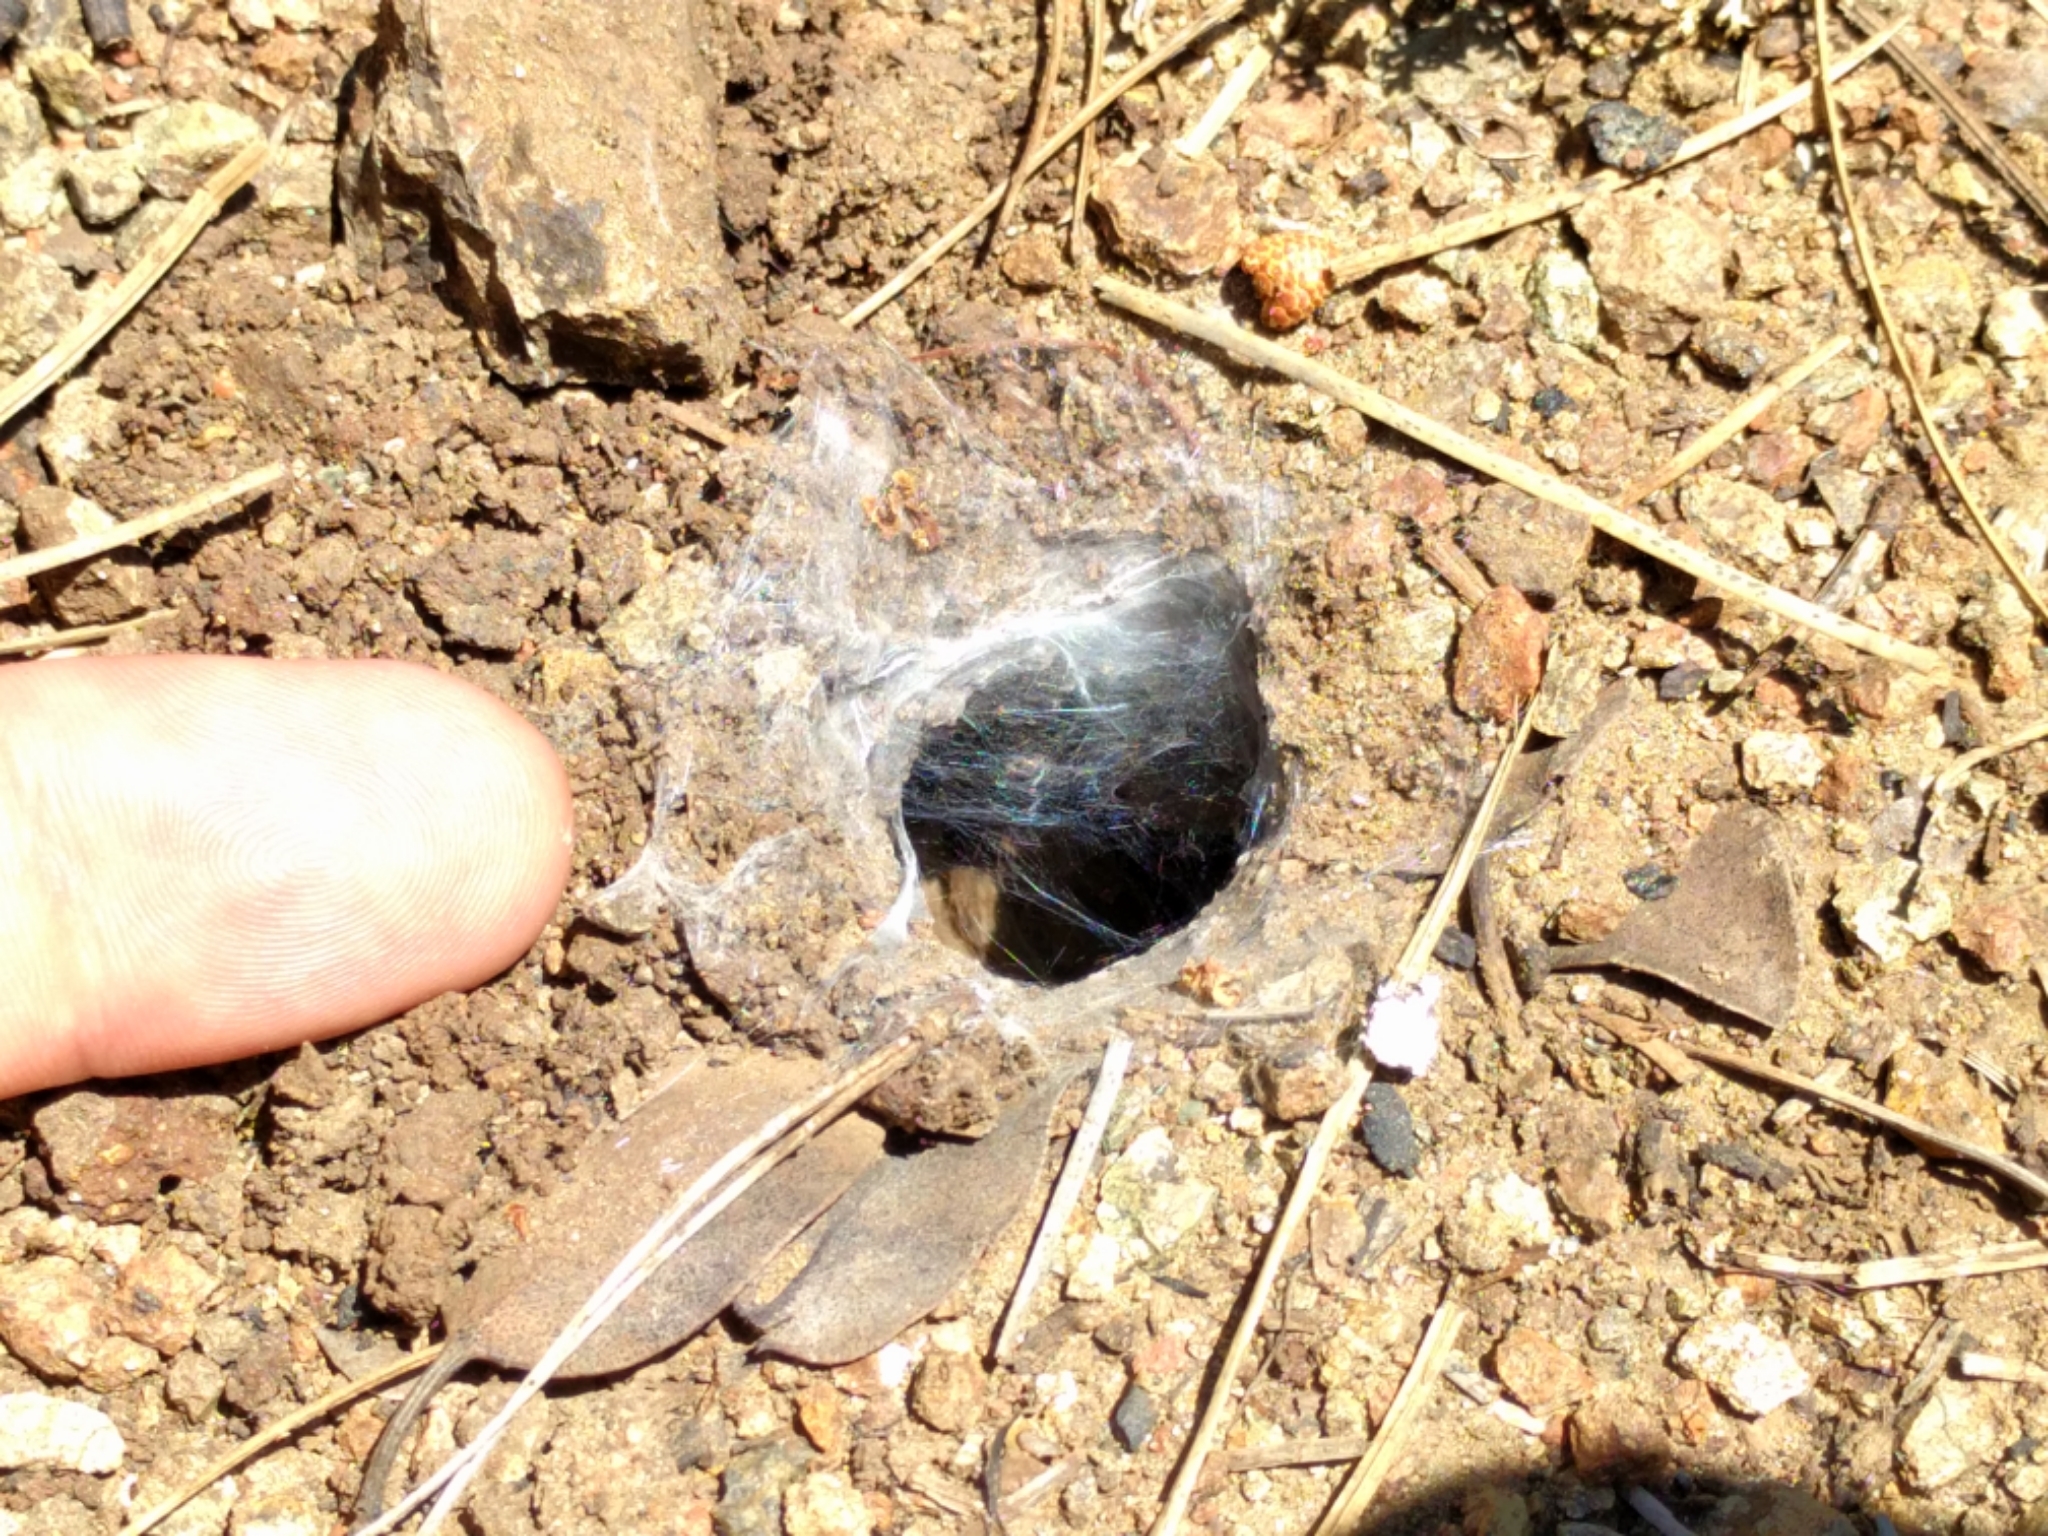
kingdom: Animalia
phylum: Arthropoda
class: Arachnida
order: Araneae
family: Theraphosidae
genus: Aphonopelma
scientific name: Aphonopelma iodius
